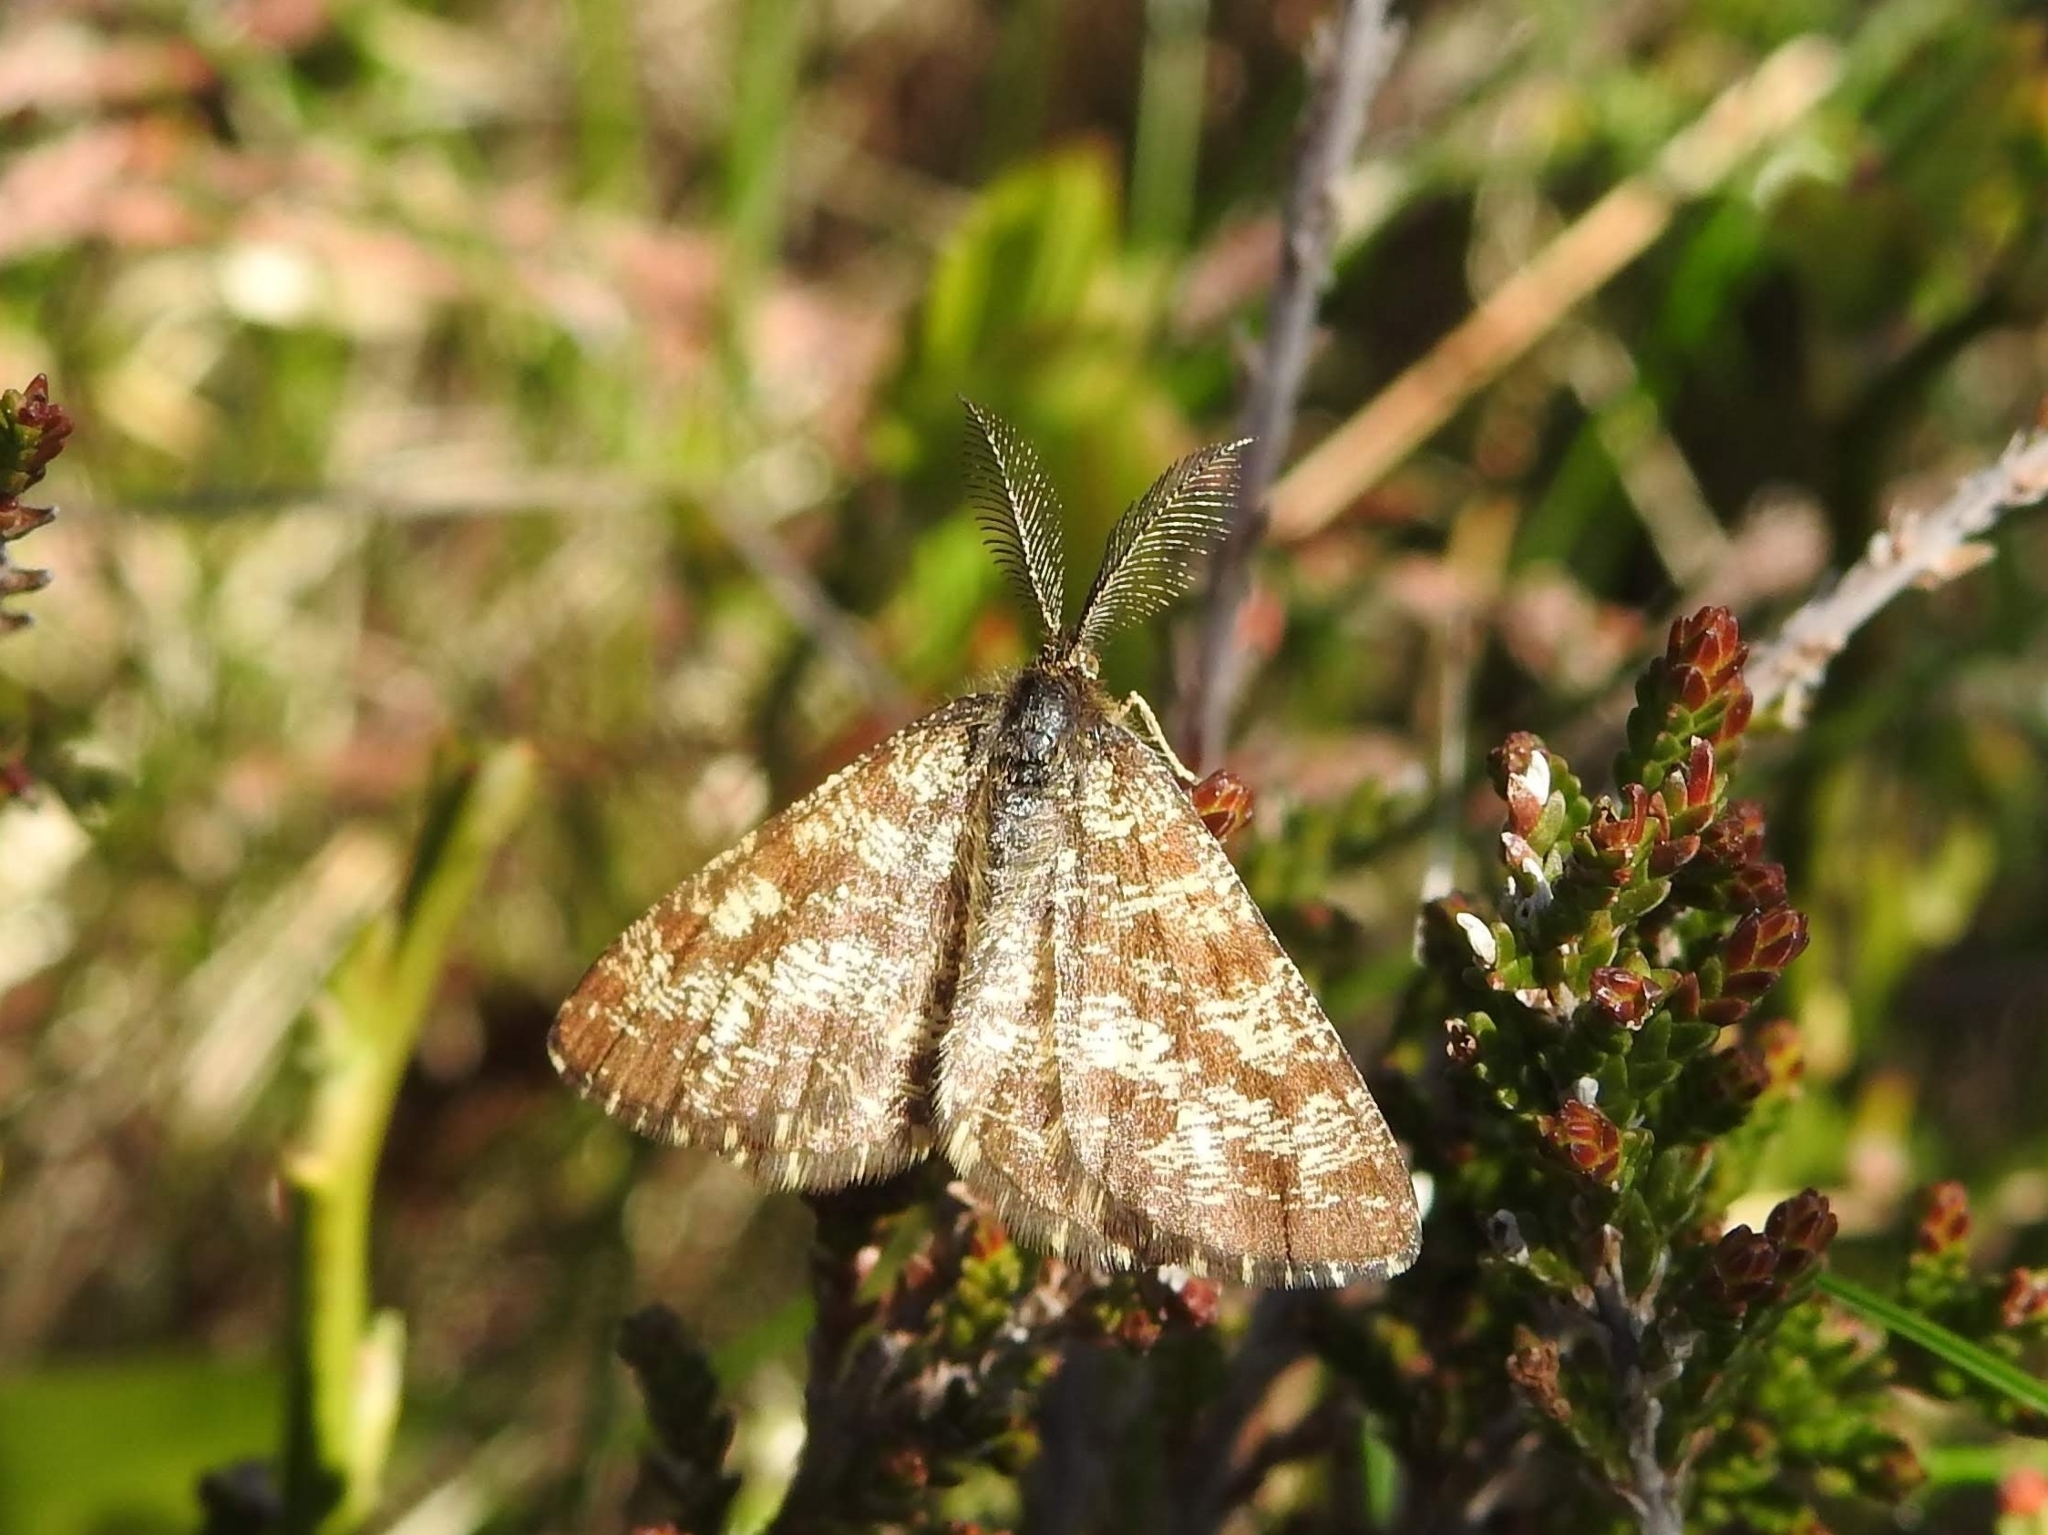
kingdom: Animalia
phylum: Arthropoda
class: Insecta
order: Lepidoptera
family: Geometridae
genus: Ematurga
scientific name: Ematurga atomaria
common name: Common heath
